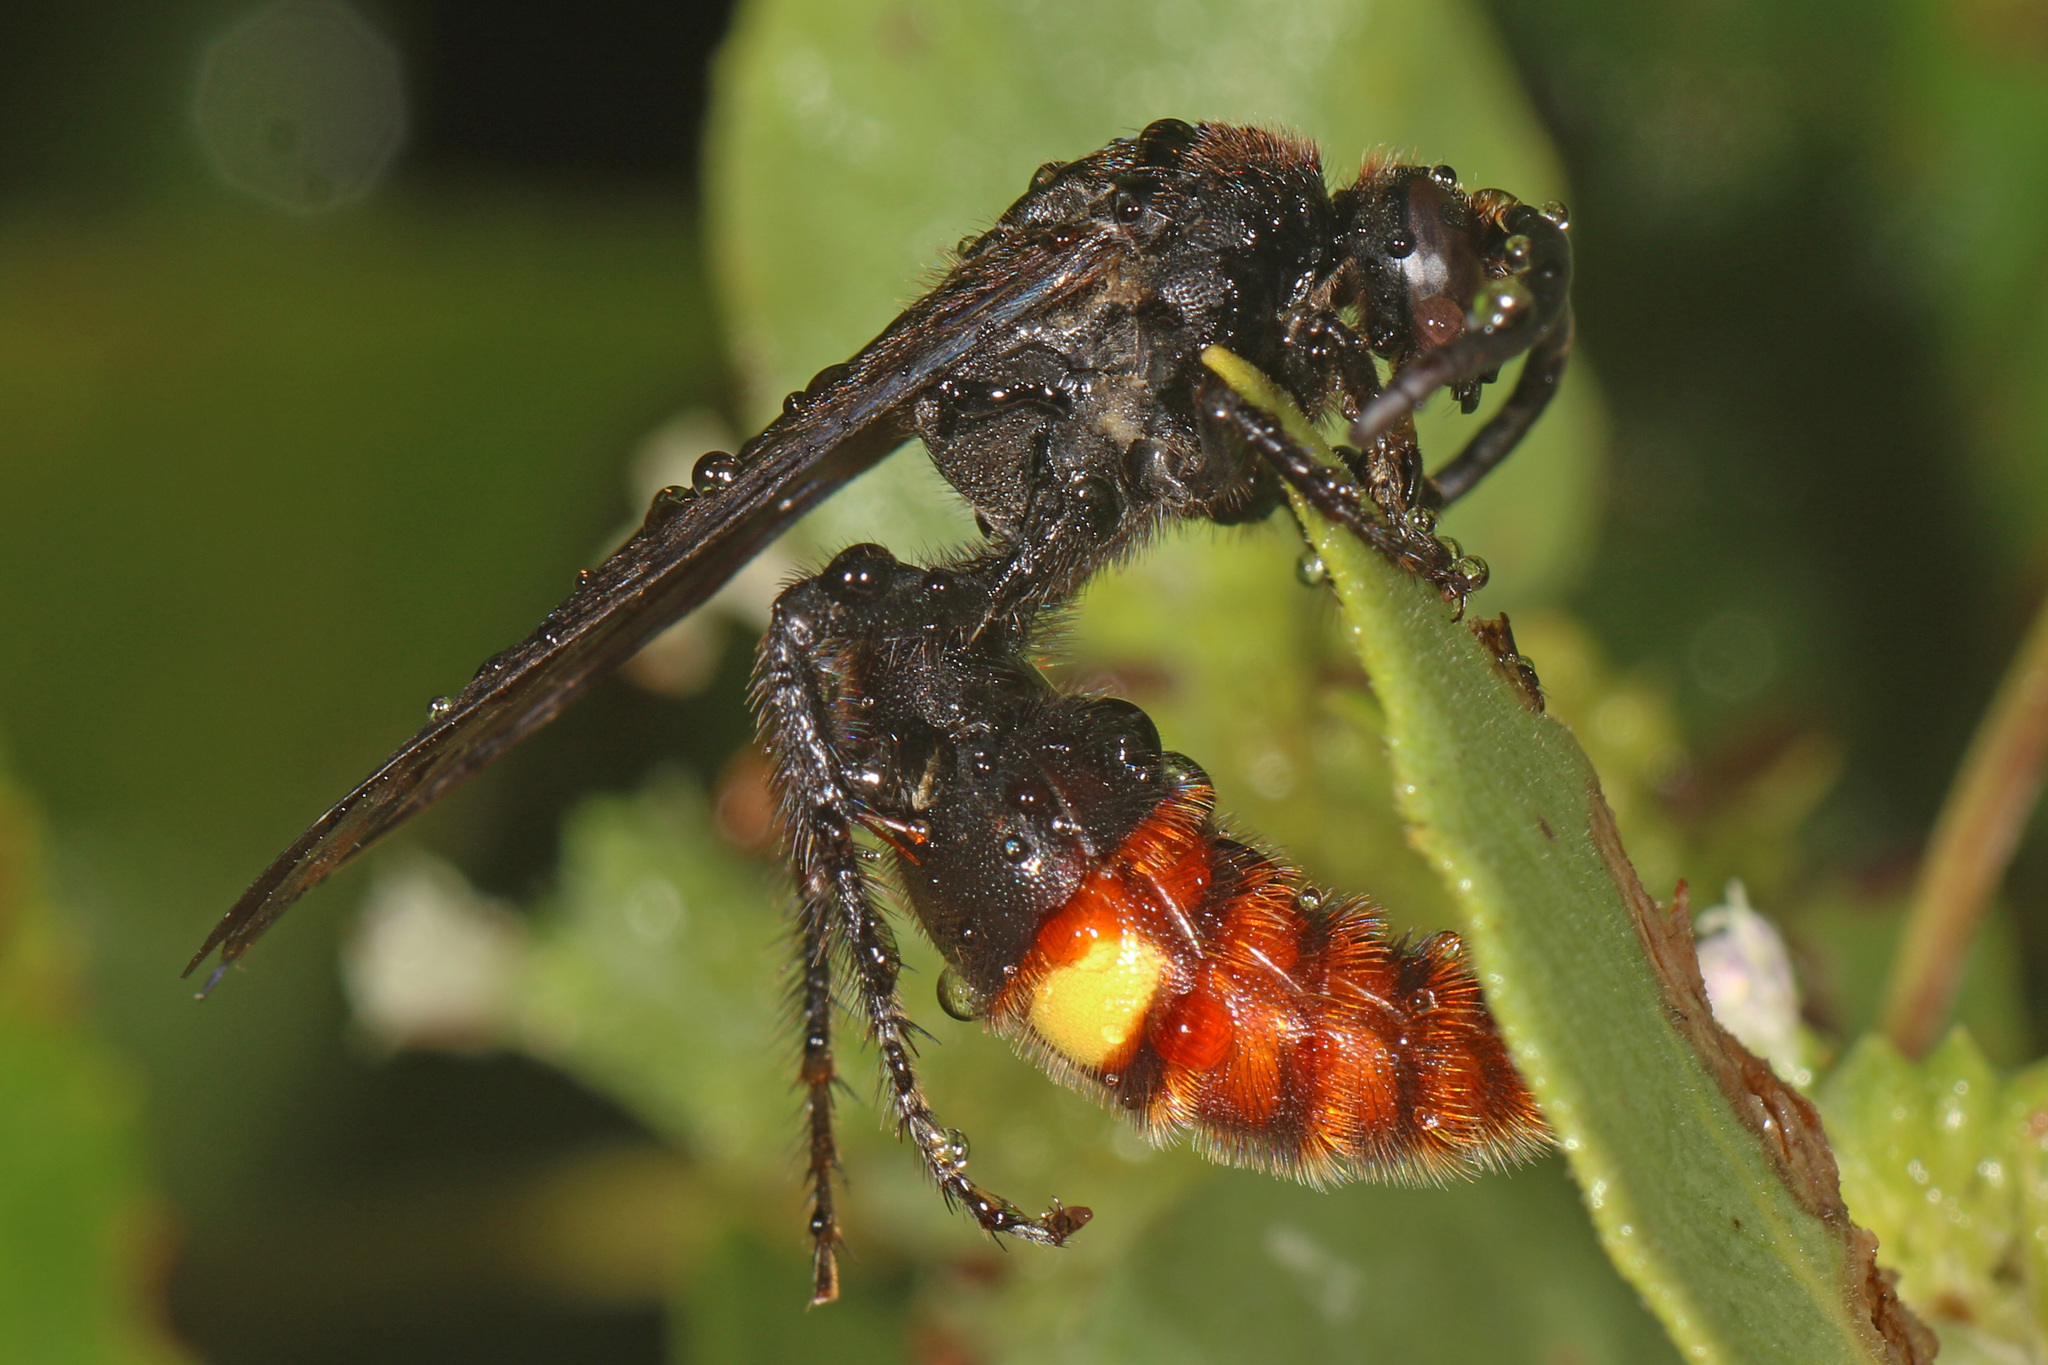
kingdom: Animalia
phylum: Arthropoda
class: Insecta
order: Hymenoptera
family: Scoliidae
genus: Scolia
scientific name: Scolia dubia
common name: Blue-winged scoliid wasp
